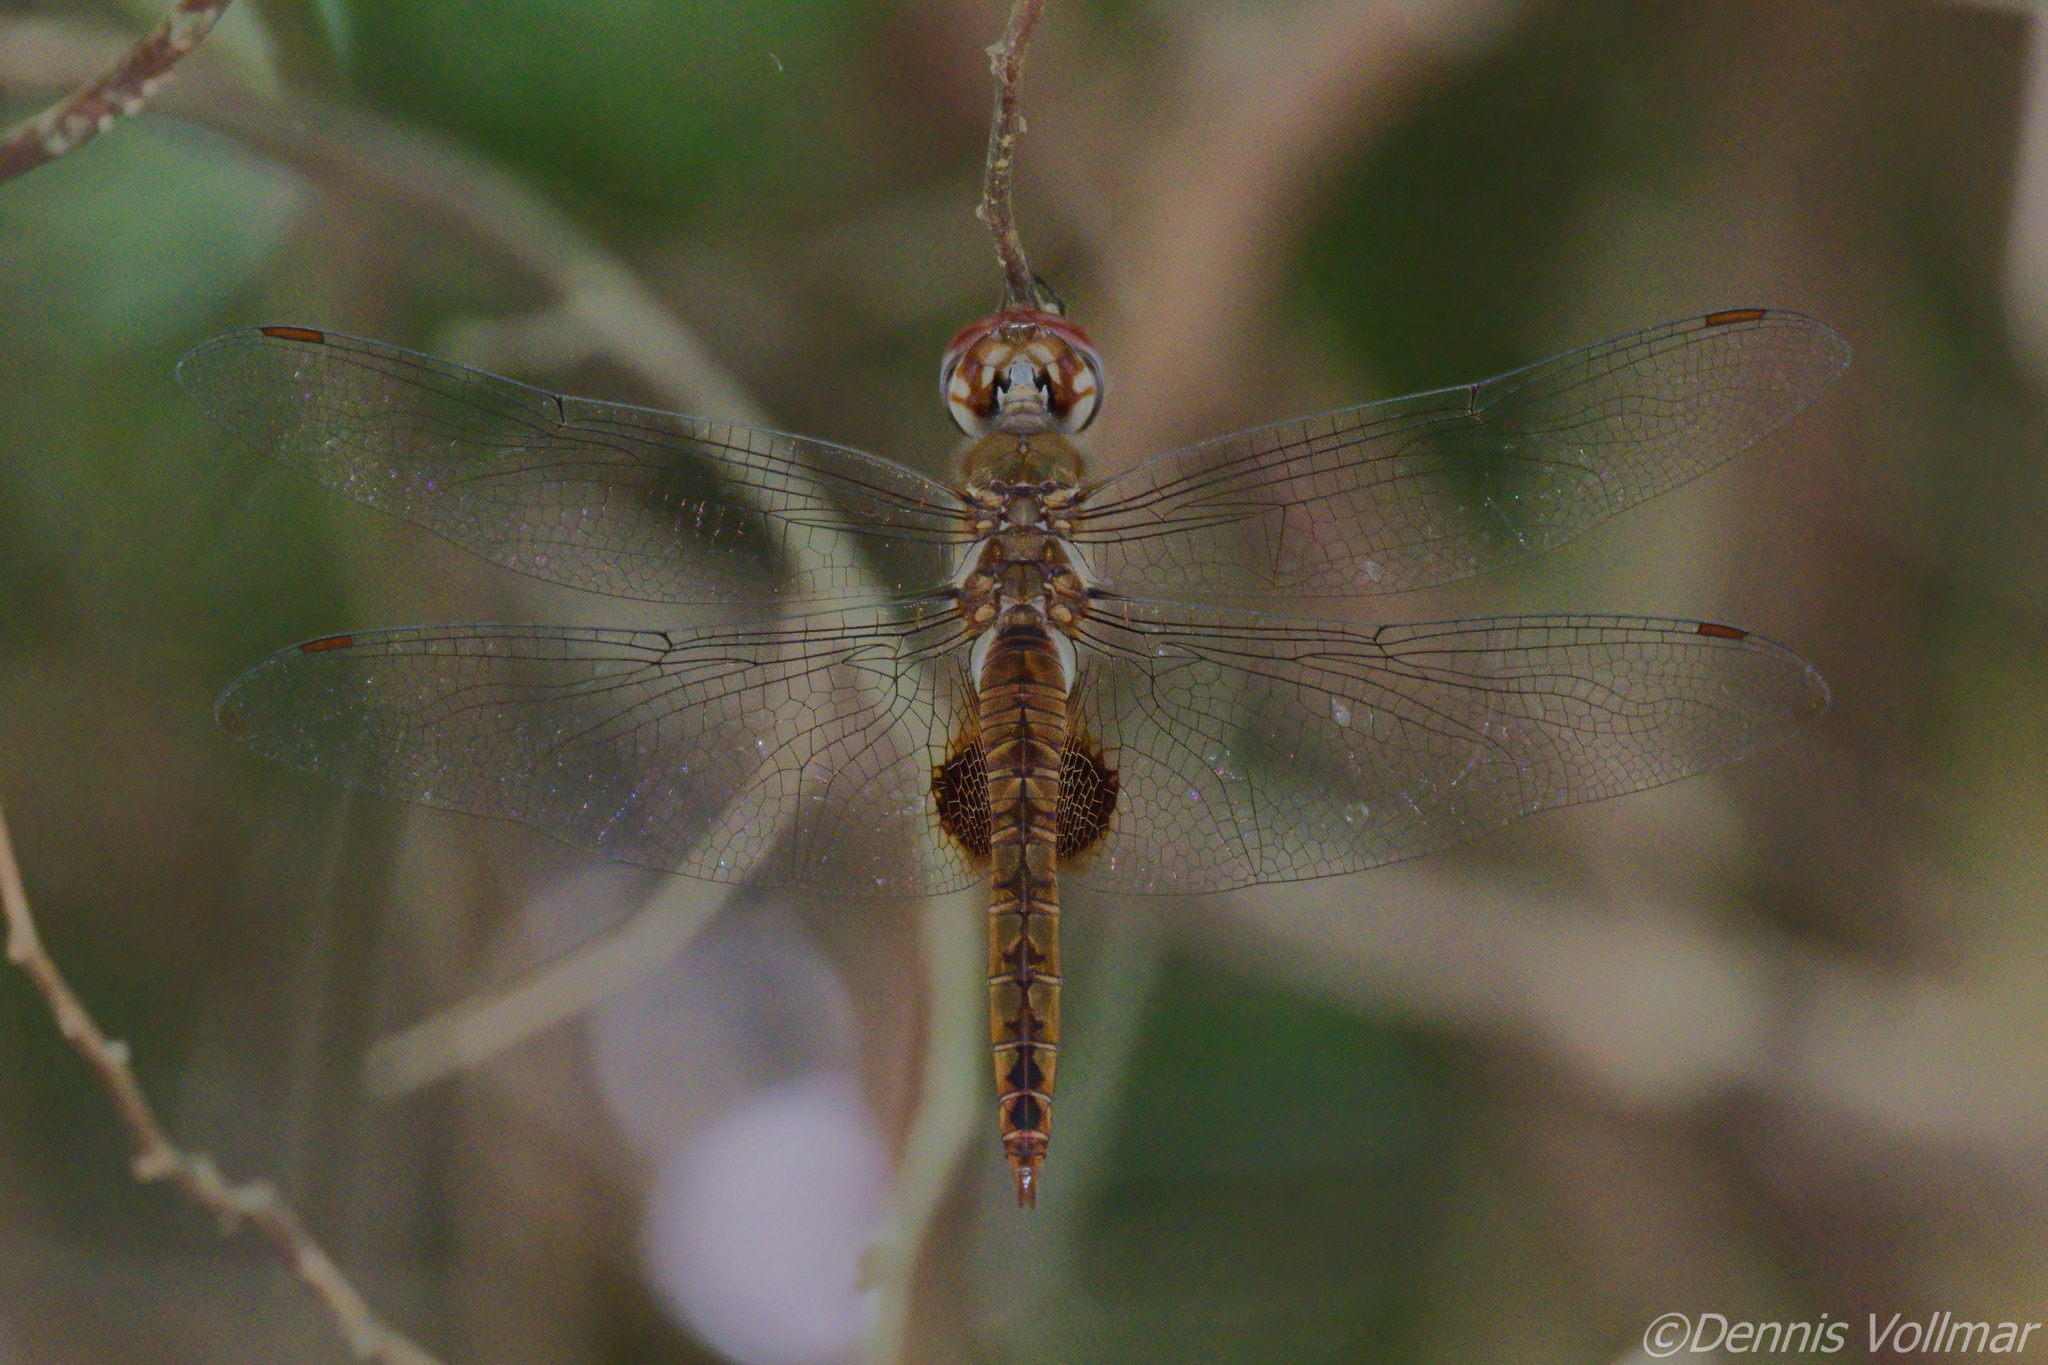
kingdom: Animalia
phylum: Arthropoda
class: Insecta
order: Odonata
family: Libellulidae
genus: Pantala
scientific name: Pantala hymenaea
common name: Spot-winged glider
